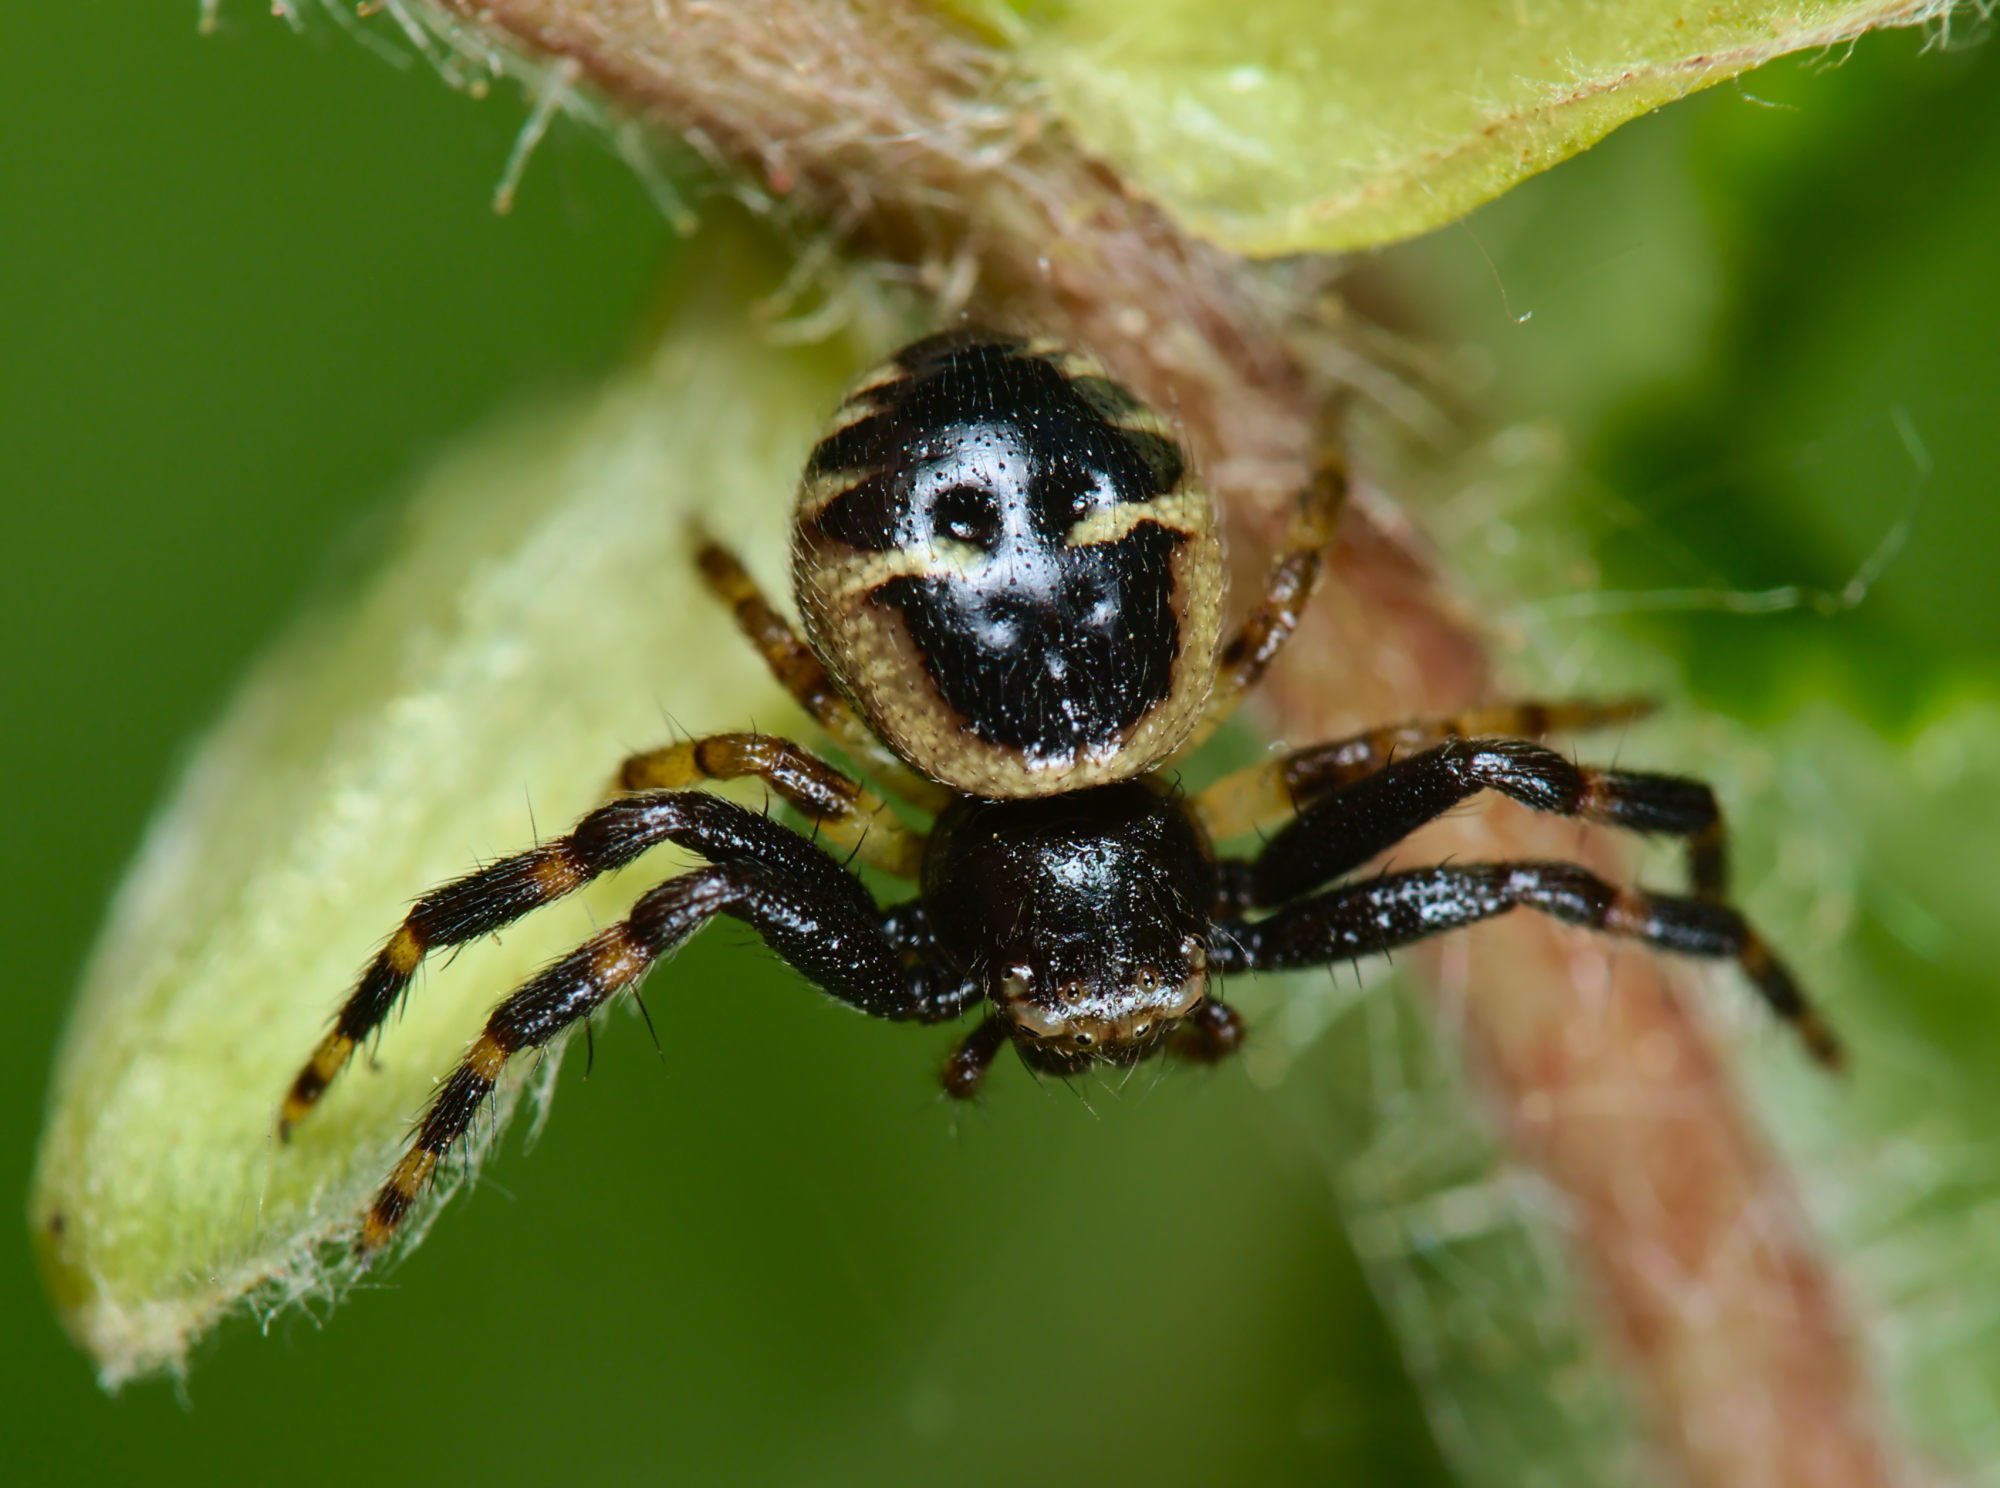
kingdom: Animalia
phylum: Arthropoda
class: Arachnida
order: Araneae
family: Thomisidae
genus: Synema
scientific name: Synema globosum
